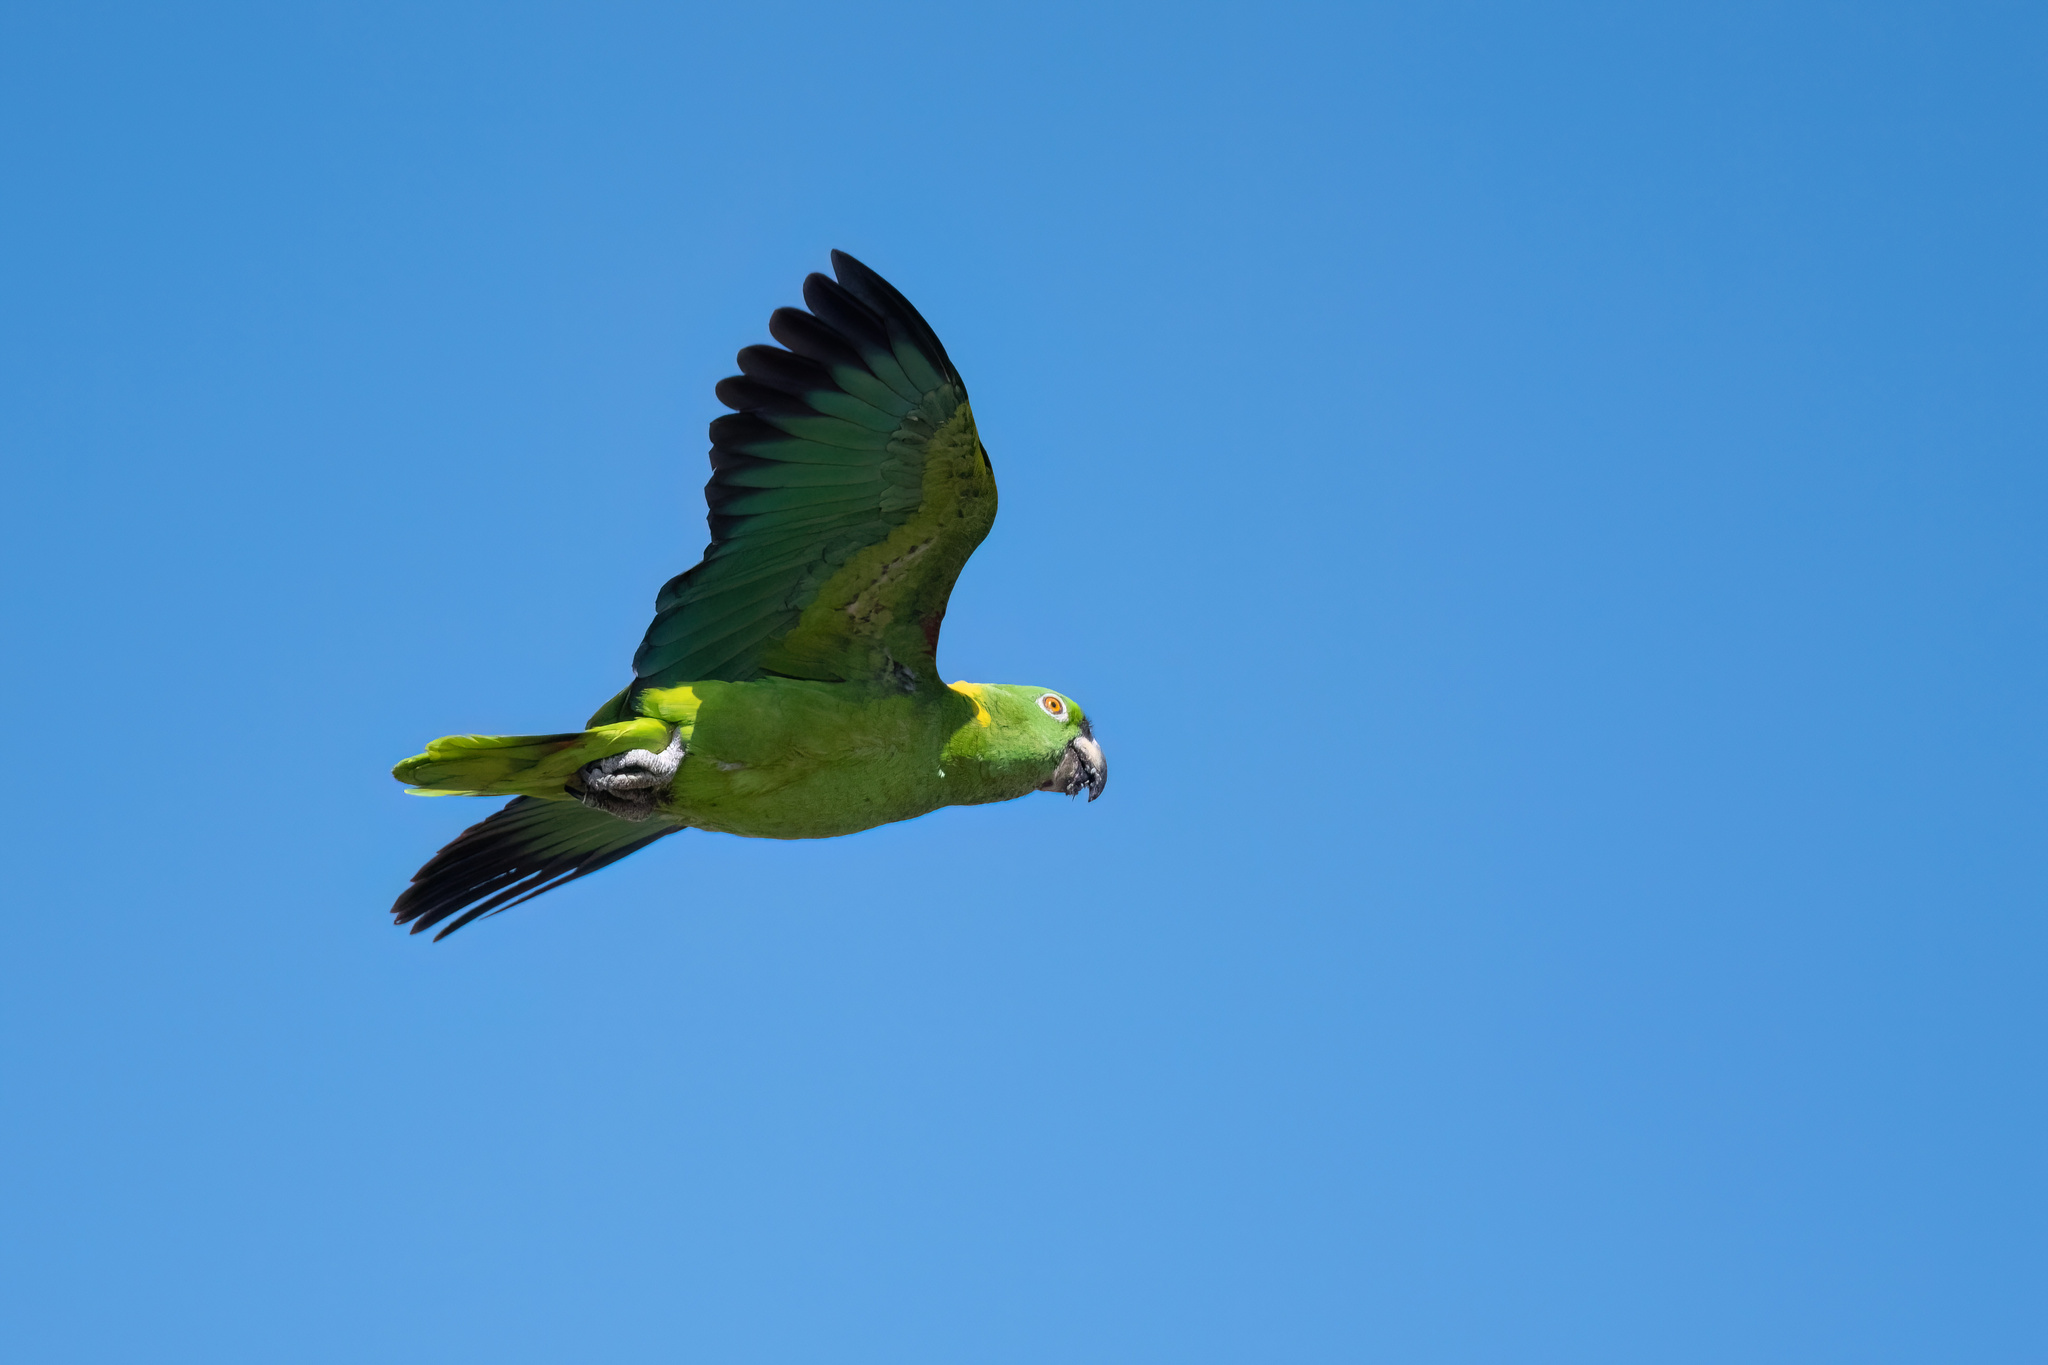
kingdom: Animalia
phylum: Chordata
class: Aves
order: Psittaciformes
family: Psittacidae
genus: Amazona
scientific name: Amazona auropalliata
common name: Yellow-naped amazon
